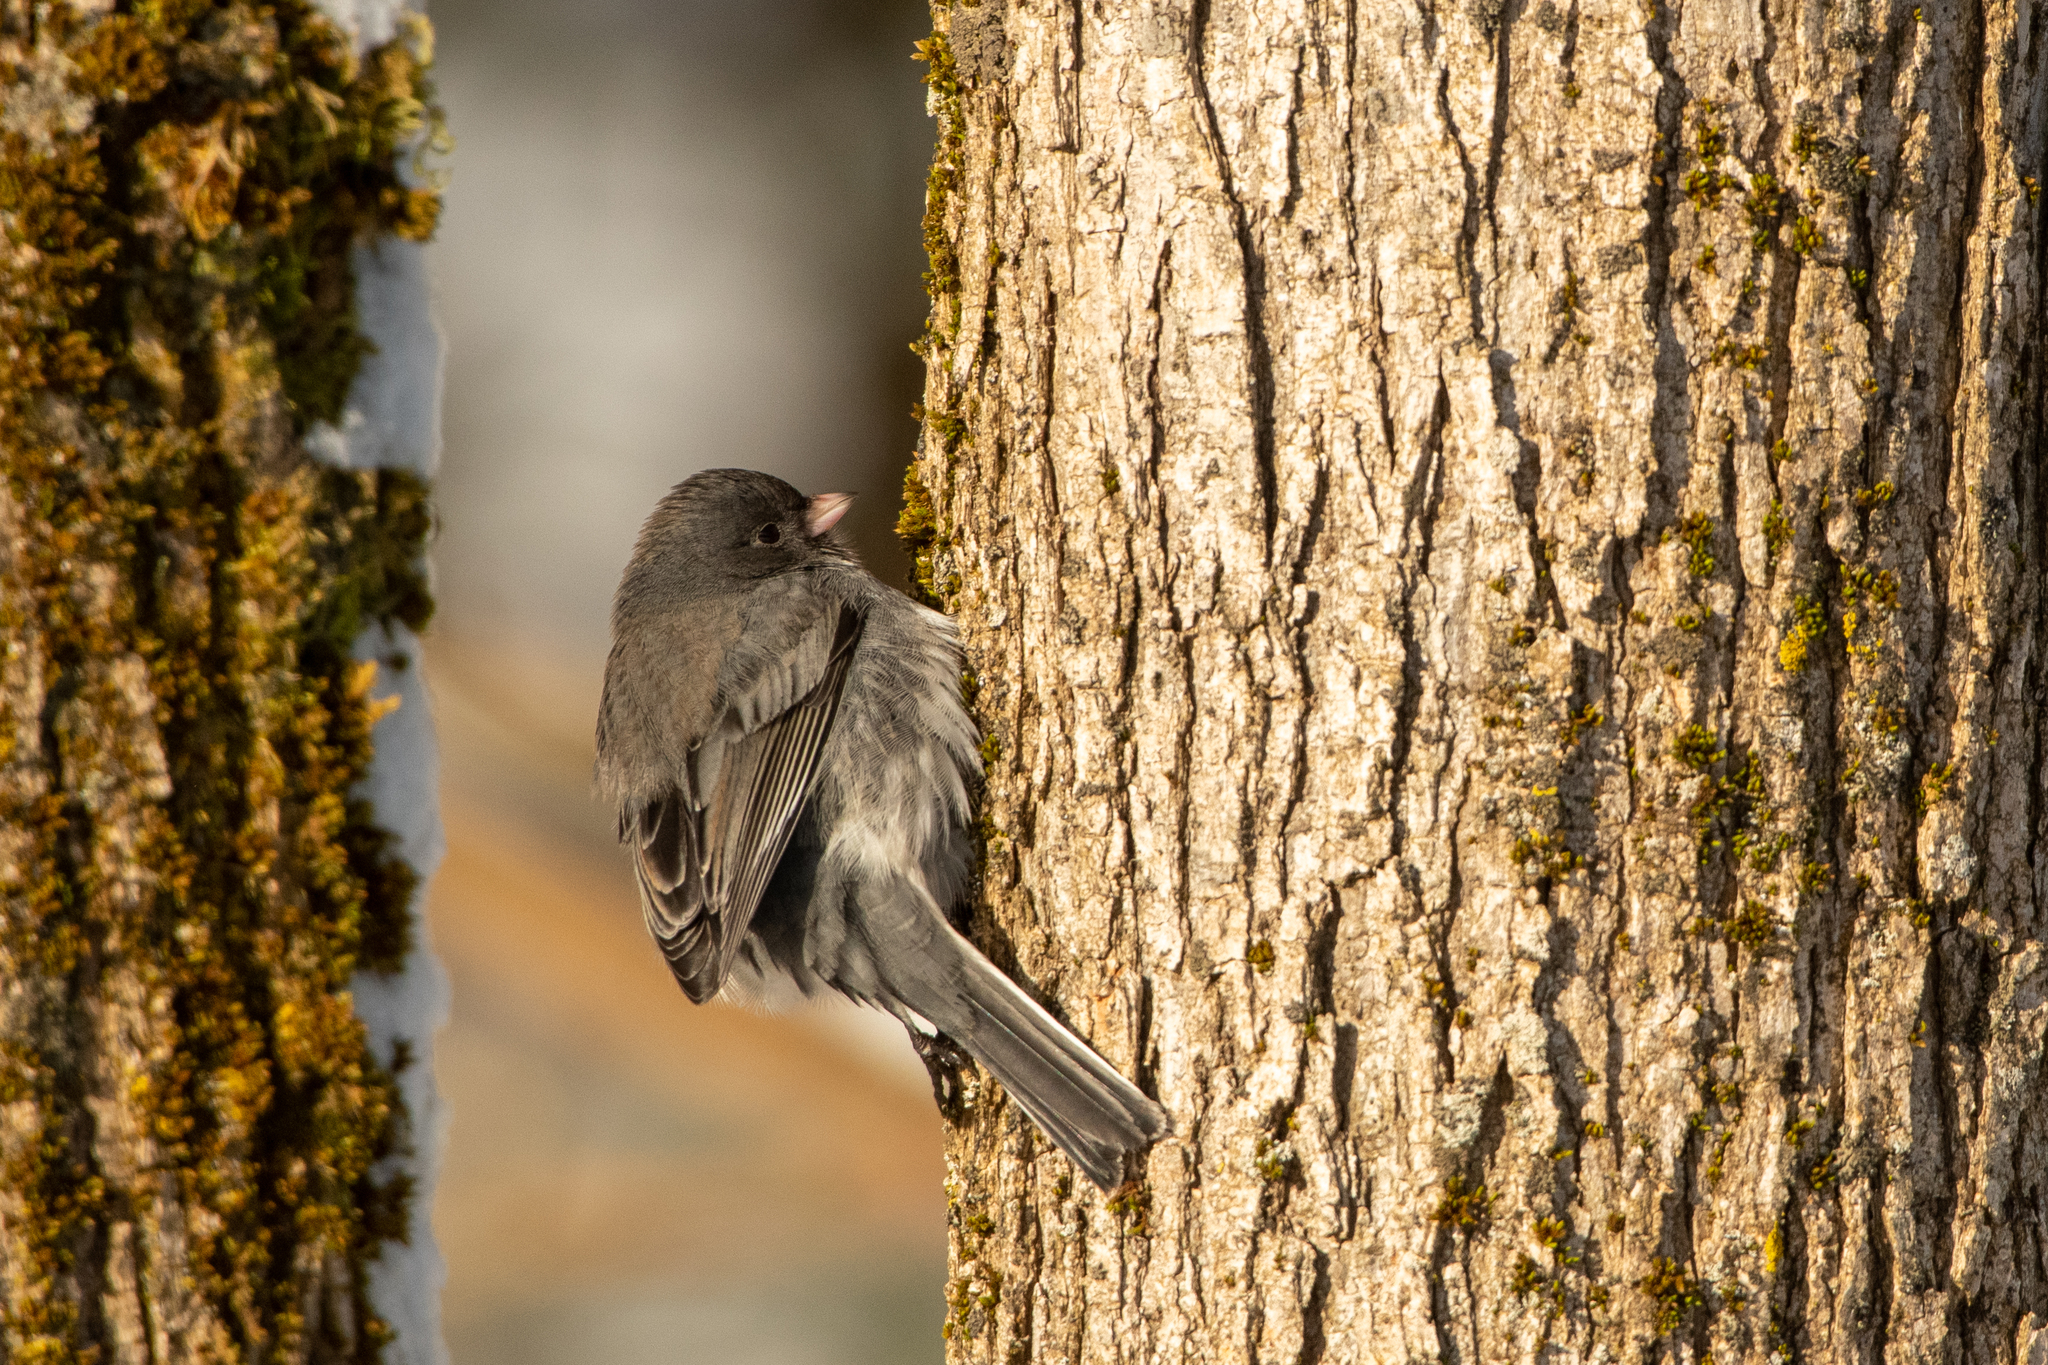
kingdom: Animalia
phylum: Chordata
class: Aves
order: Passeriformes
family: Passerellidae
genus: Junco
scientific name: Junco hyemalis
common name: Dark-eyed junco
